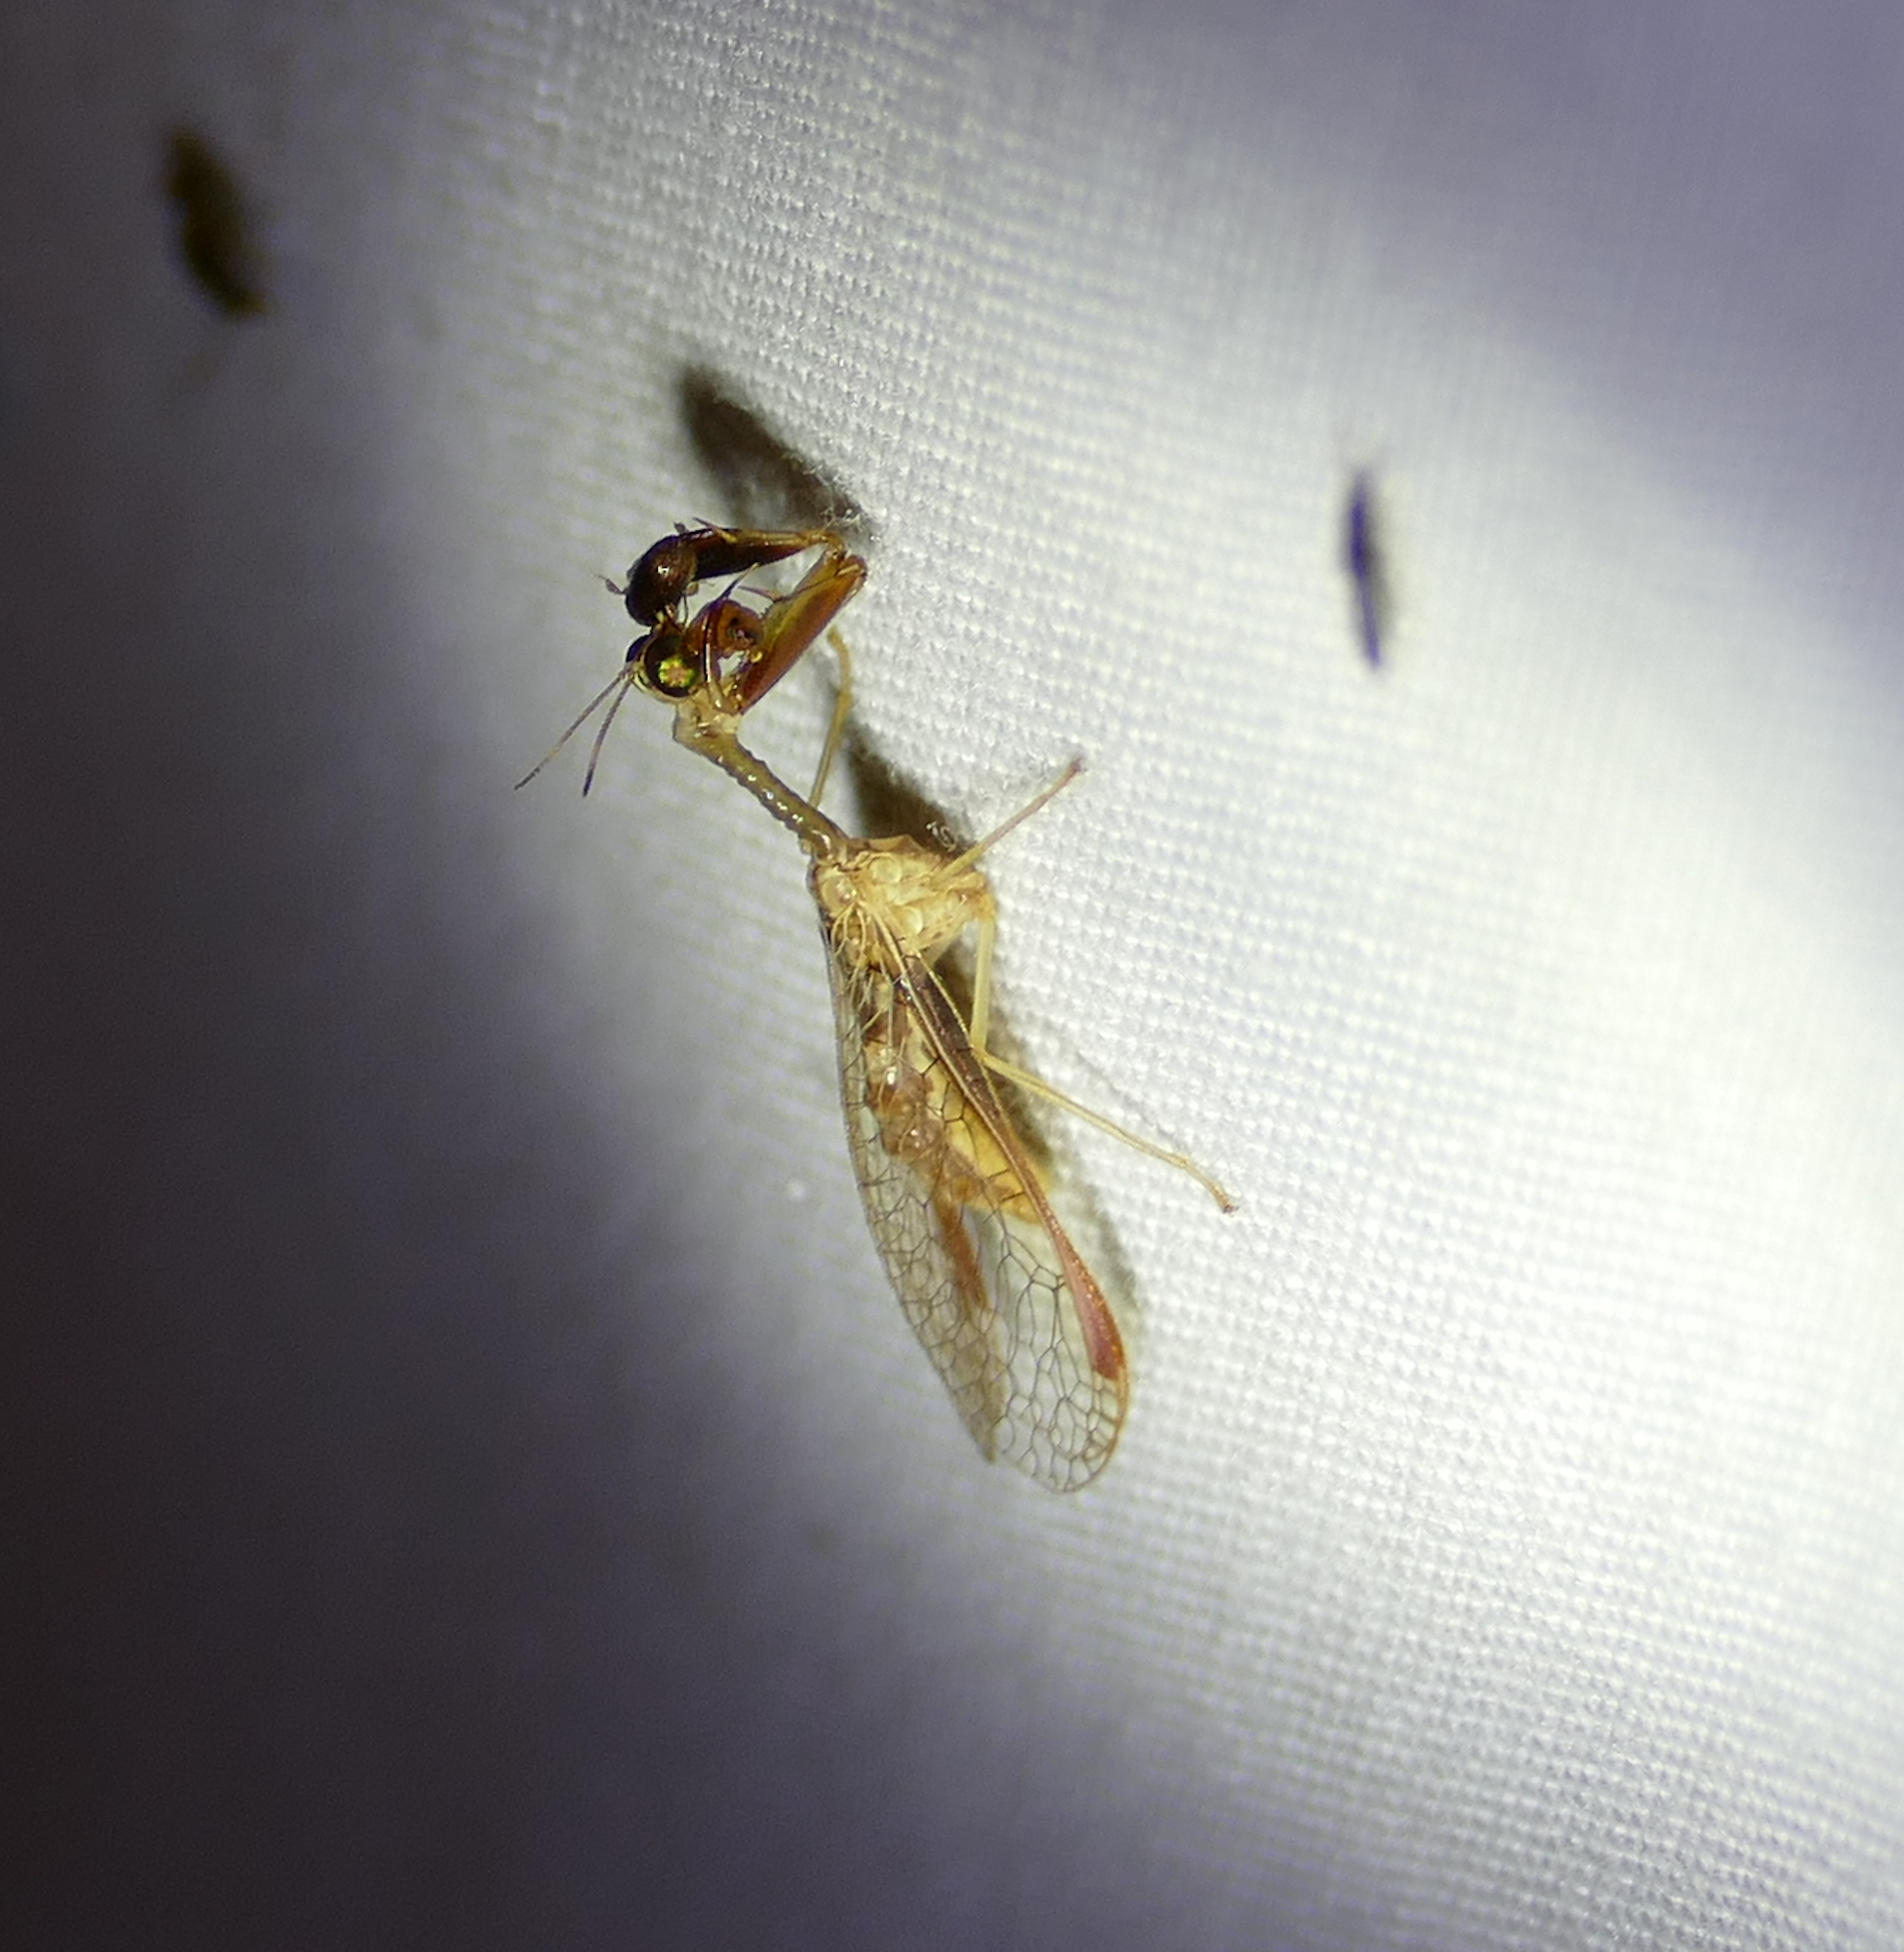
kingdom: Animalia
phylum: Arthropoda
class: Insecta
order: Neuroptera
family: Mantispidae
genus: Dicromantispa
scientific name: Dicromantispa sayi
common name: Say's mantidfly
